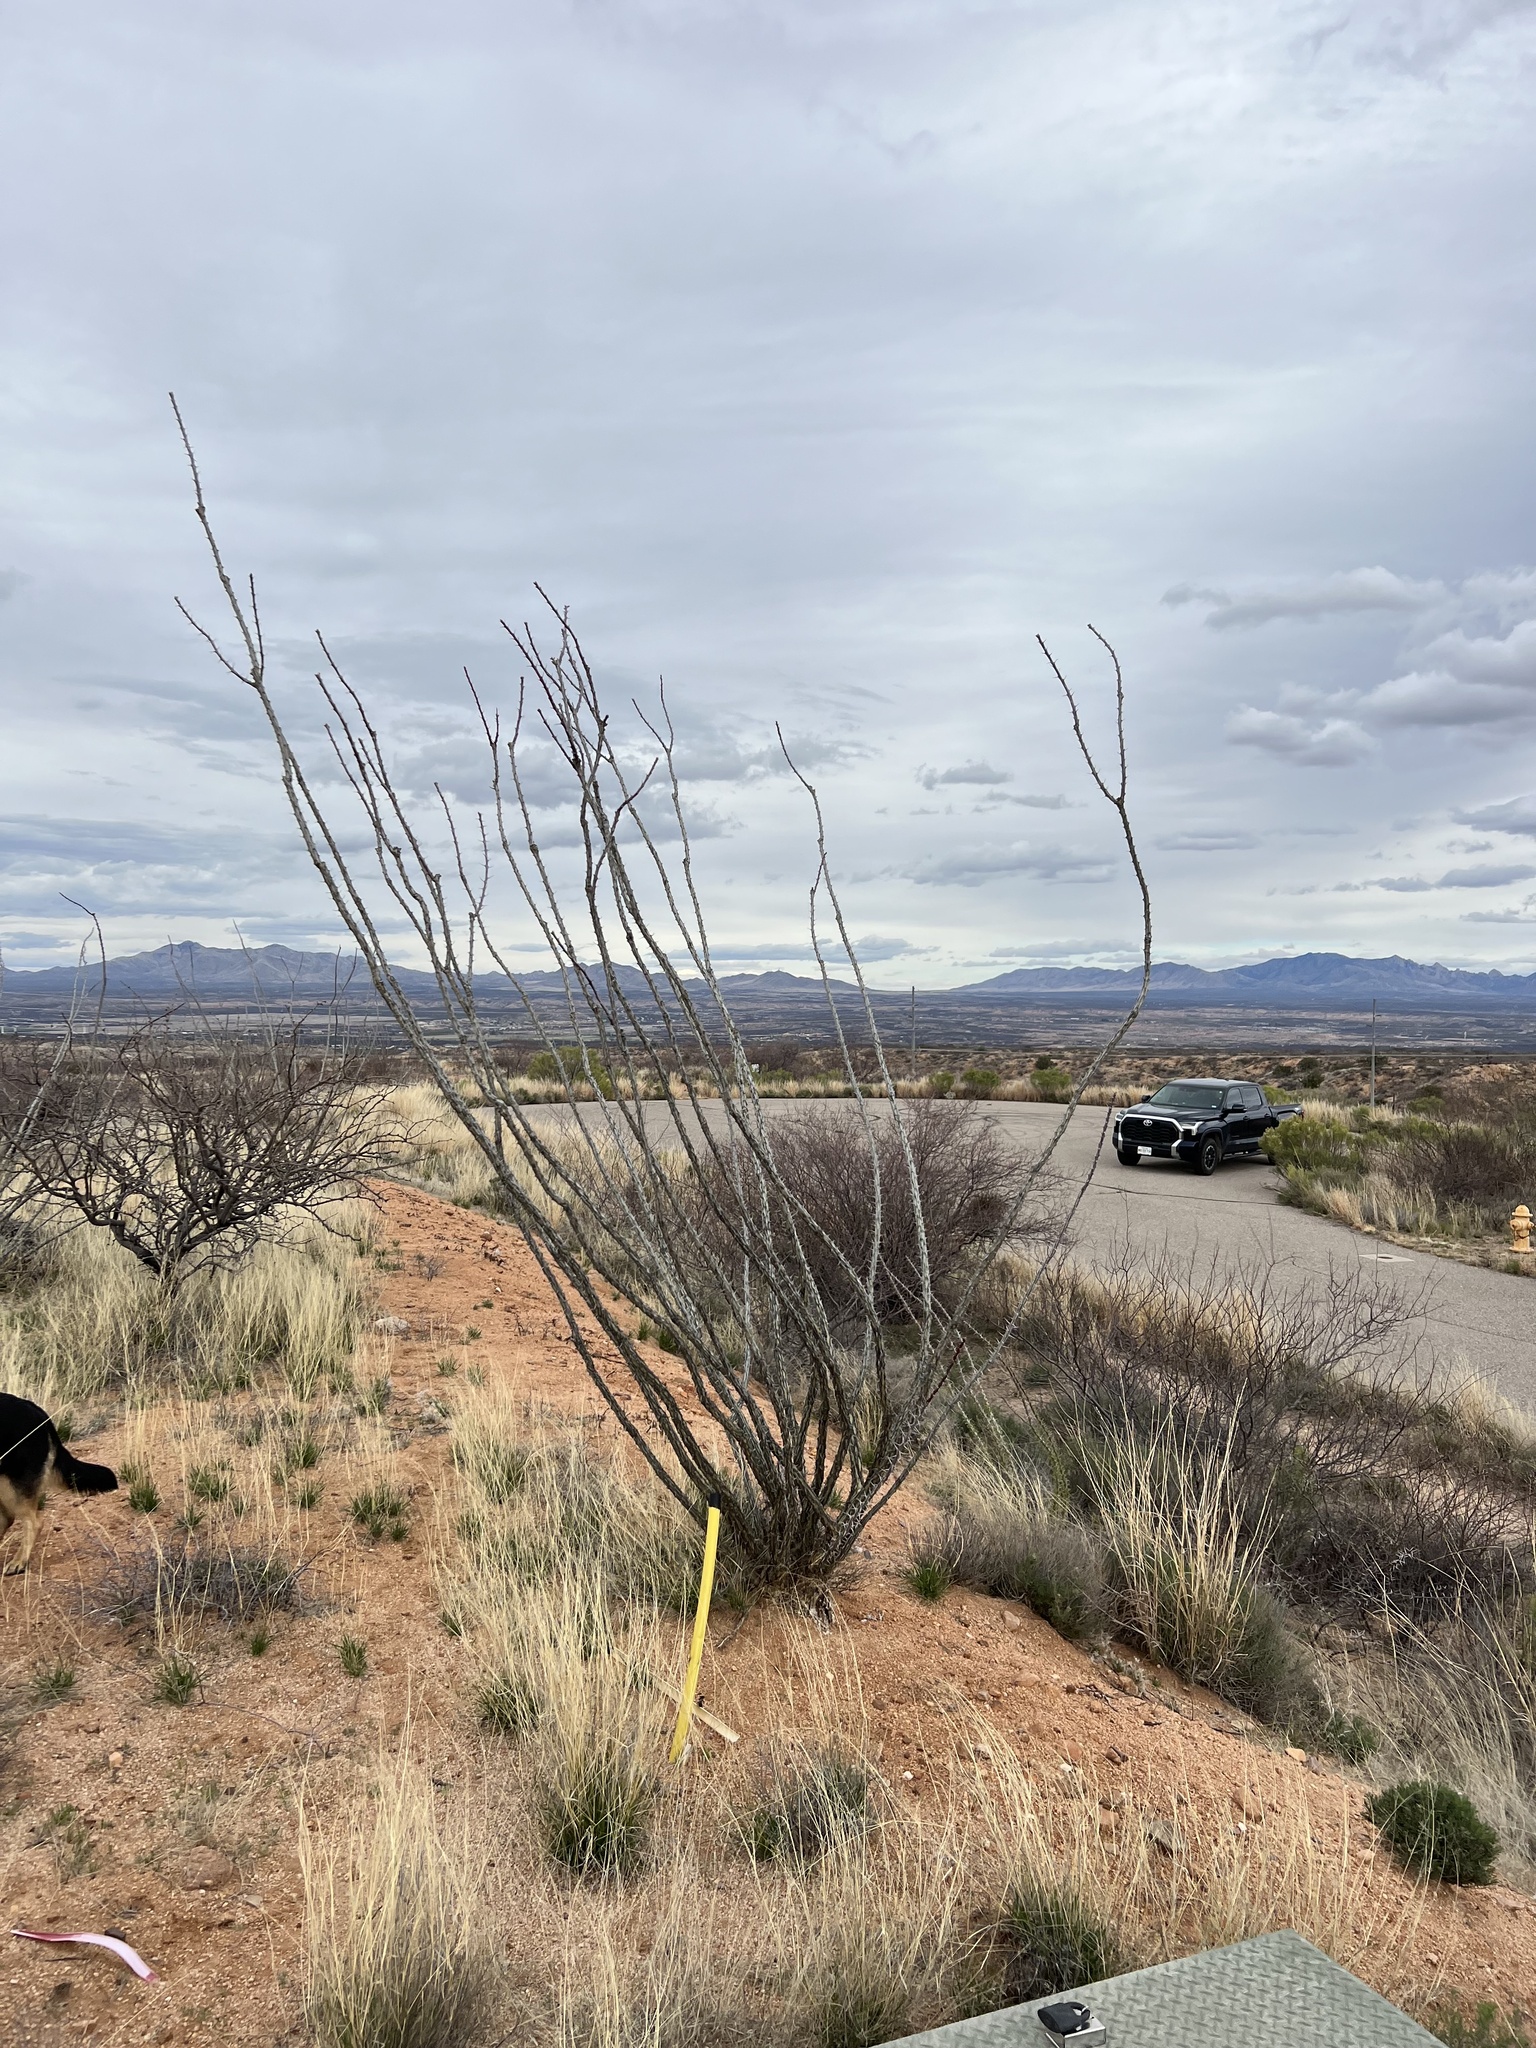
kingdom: Plantae
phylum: Tracheophyta
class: Magnoliopsida
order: Ericales
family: Fouquieriaceae
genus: Fouquieria
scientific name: Fouquieria splendens
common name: Vine-cactus
